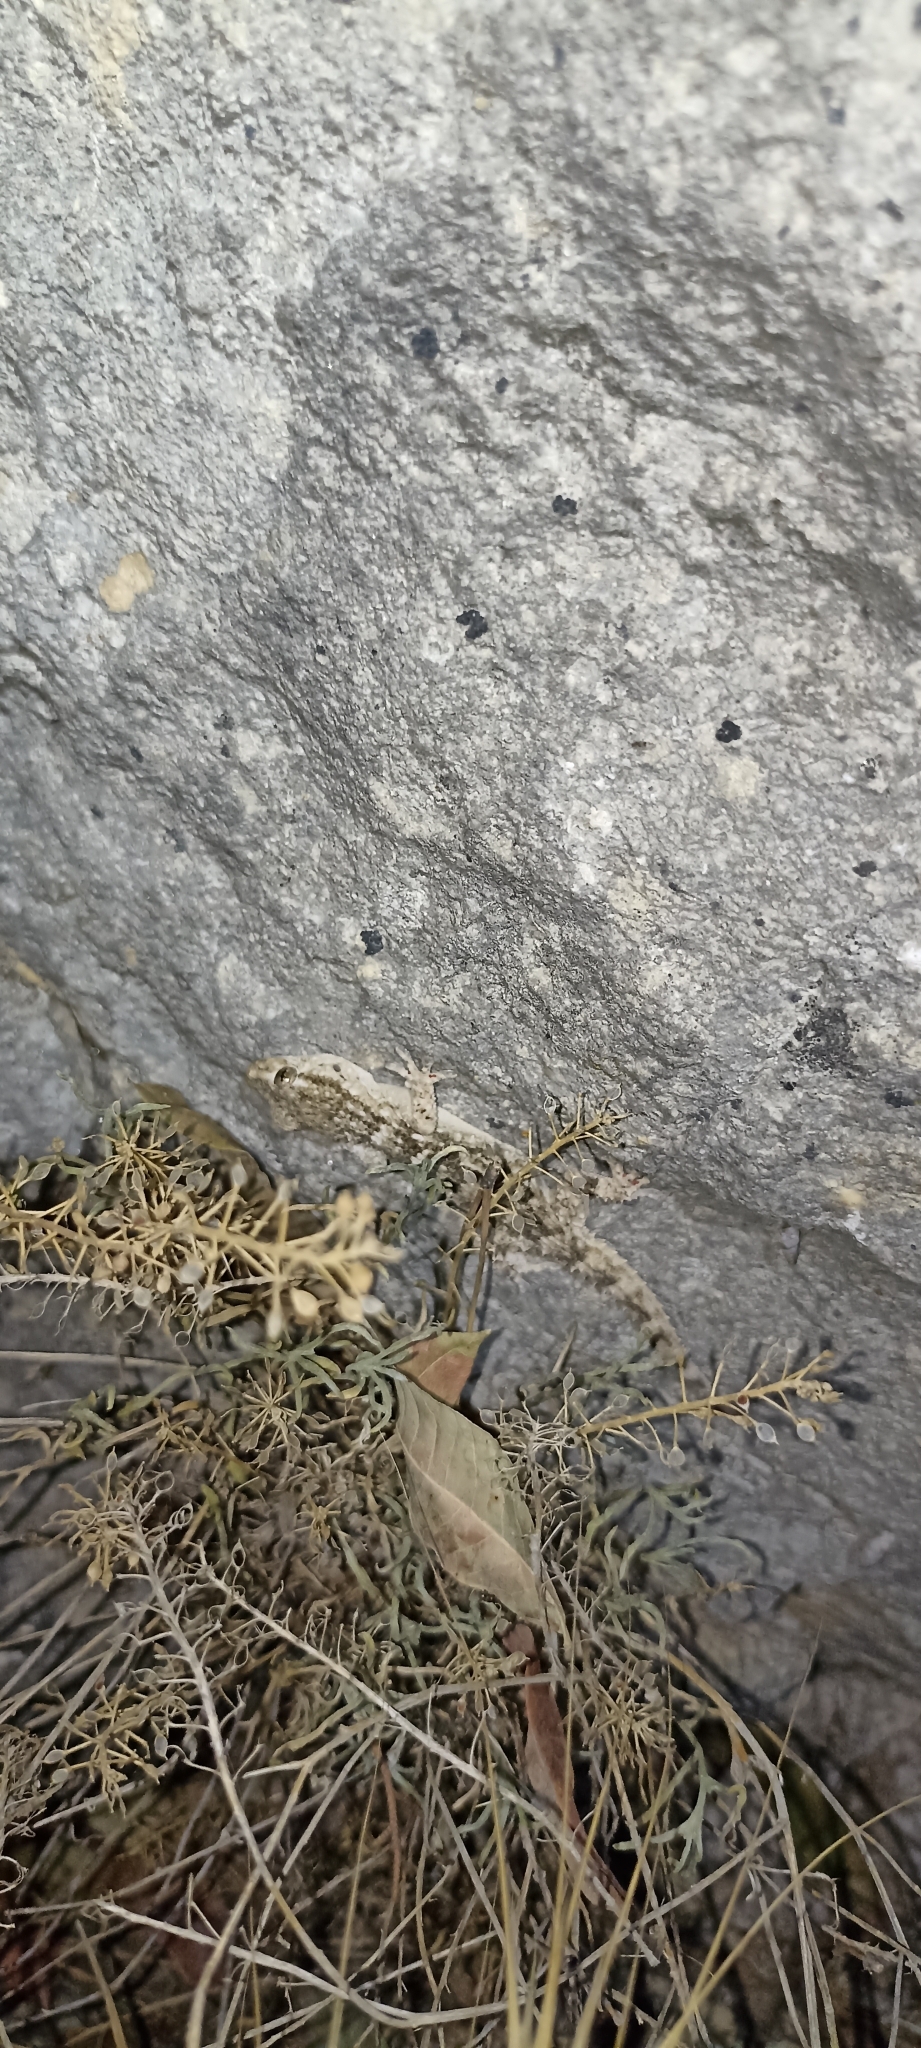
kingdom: Animalia
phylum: Chordata
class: Squamata
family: Phyllodactylidae
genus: Tarentola
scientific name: Tarentola mauritanica
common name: Moorish gecko
